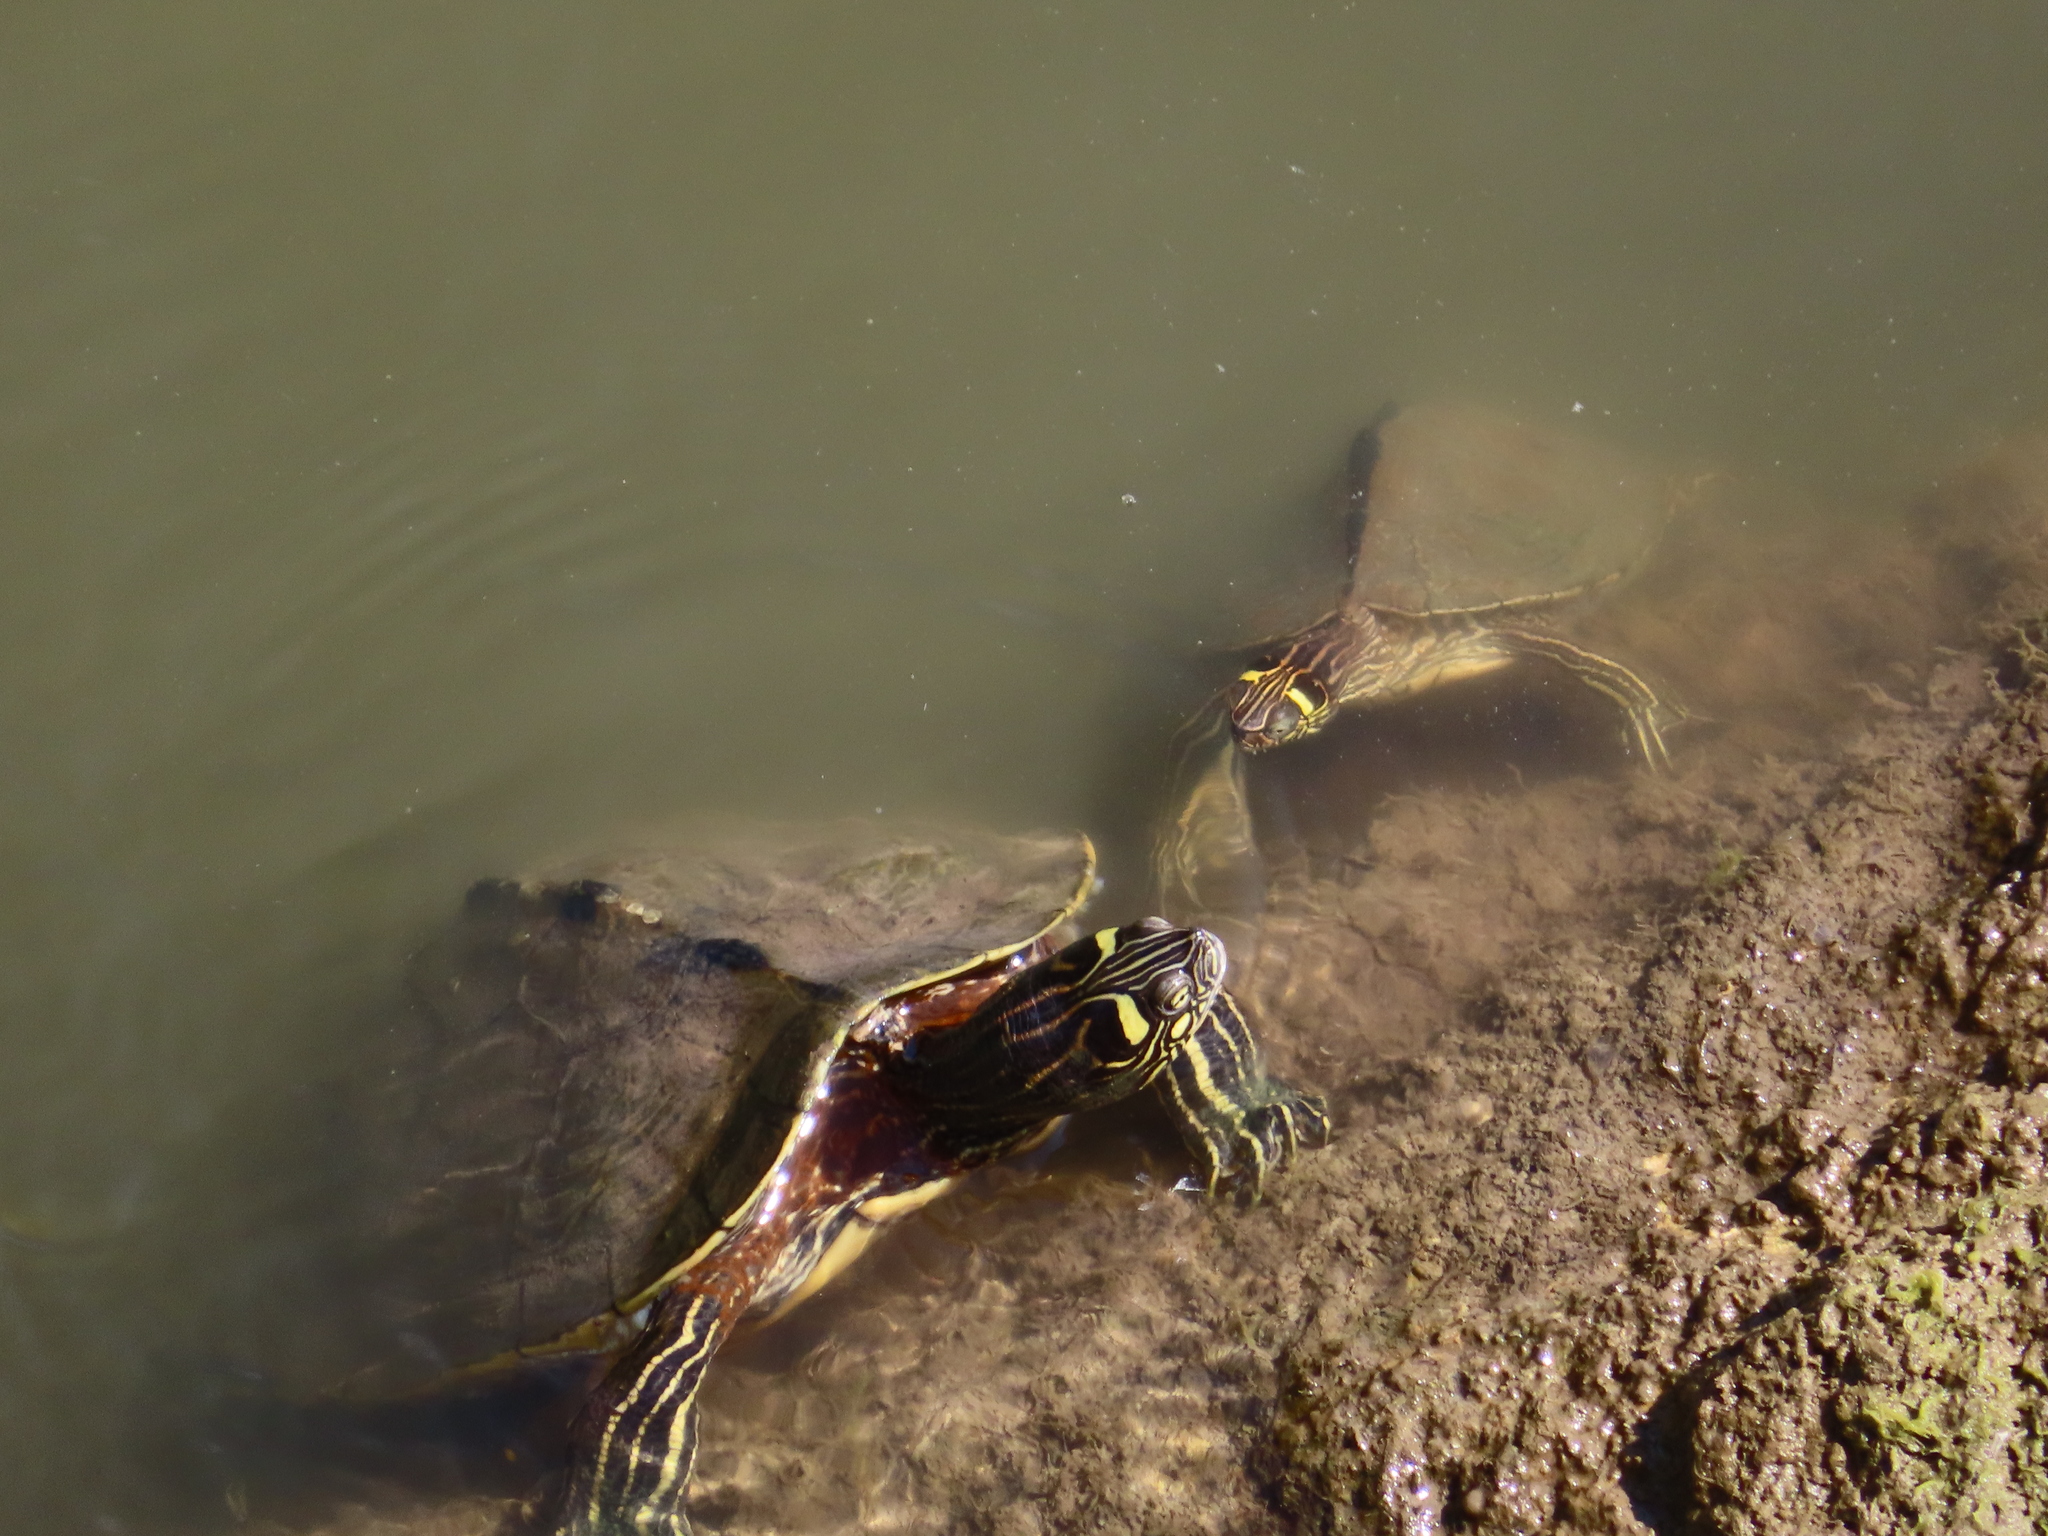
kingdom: Animalia
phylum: Chordata
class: Testudines
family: Emydidae
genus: Graptemys
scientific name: Graptemys ouachitensis
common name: Ouachita map turtle
